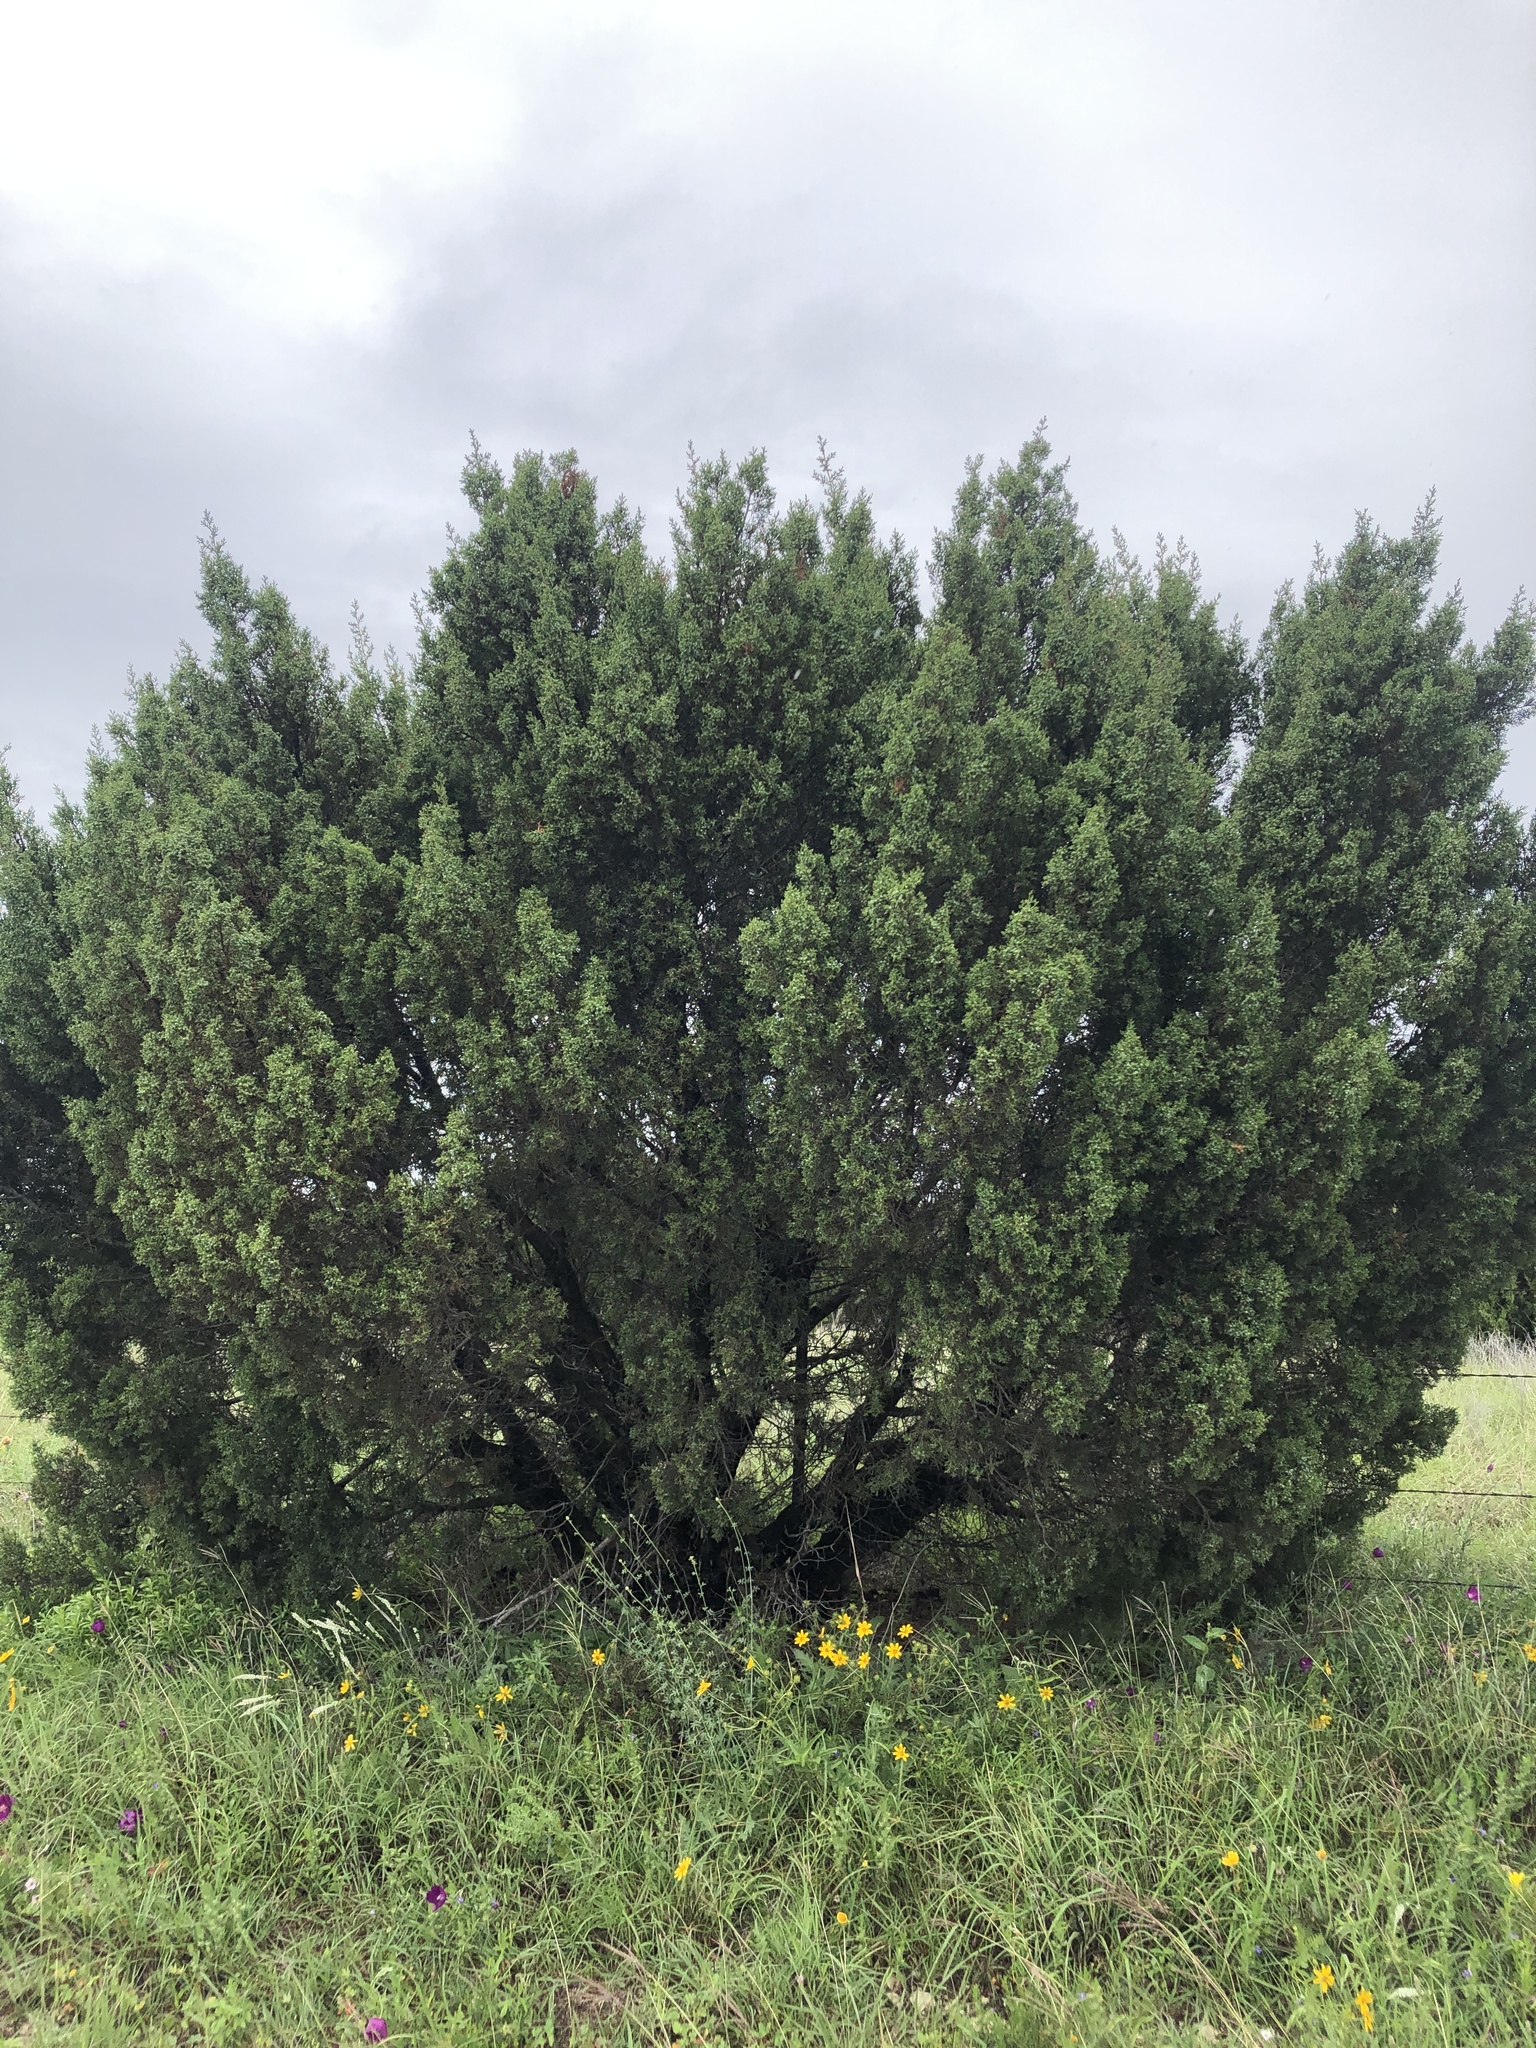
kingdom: Plantae
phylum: Tracheophyta
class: Pinopsida
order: Pinales
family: Cupressaceae
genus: Juniperus
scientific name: Juniperus pinchotii
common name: Pinchot juniper
